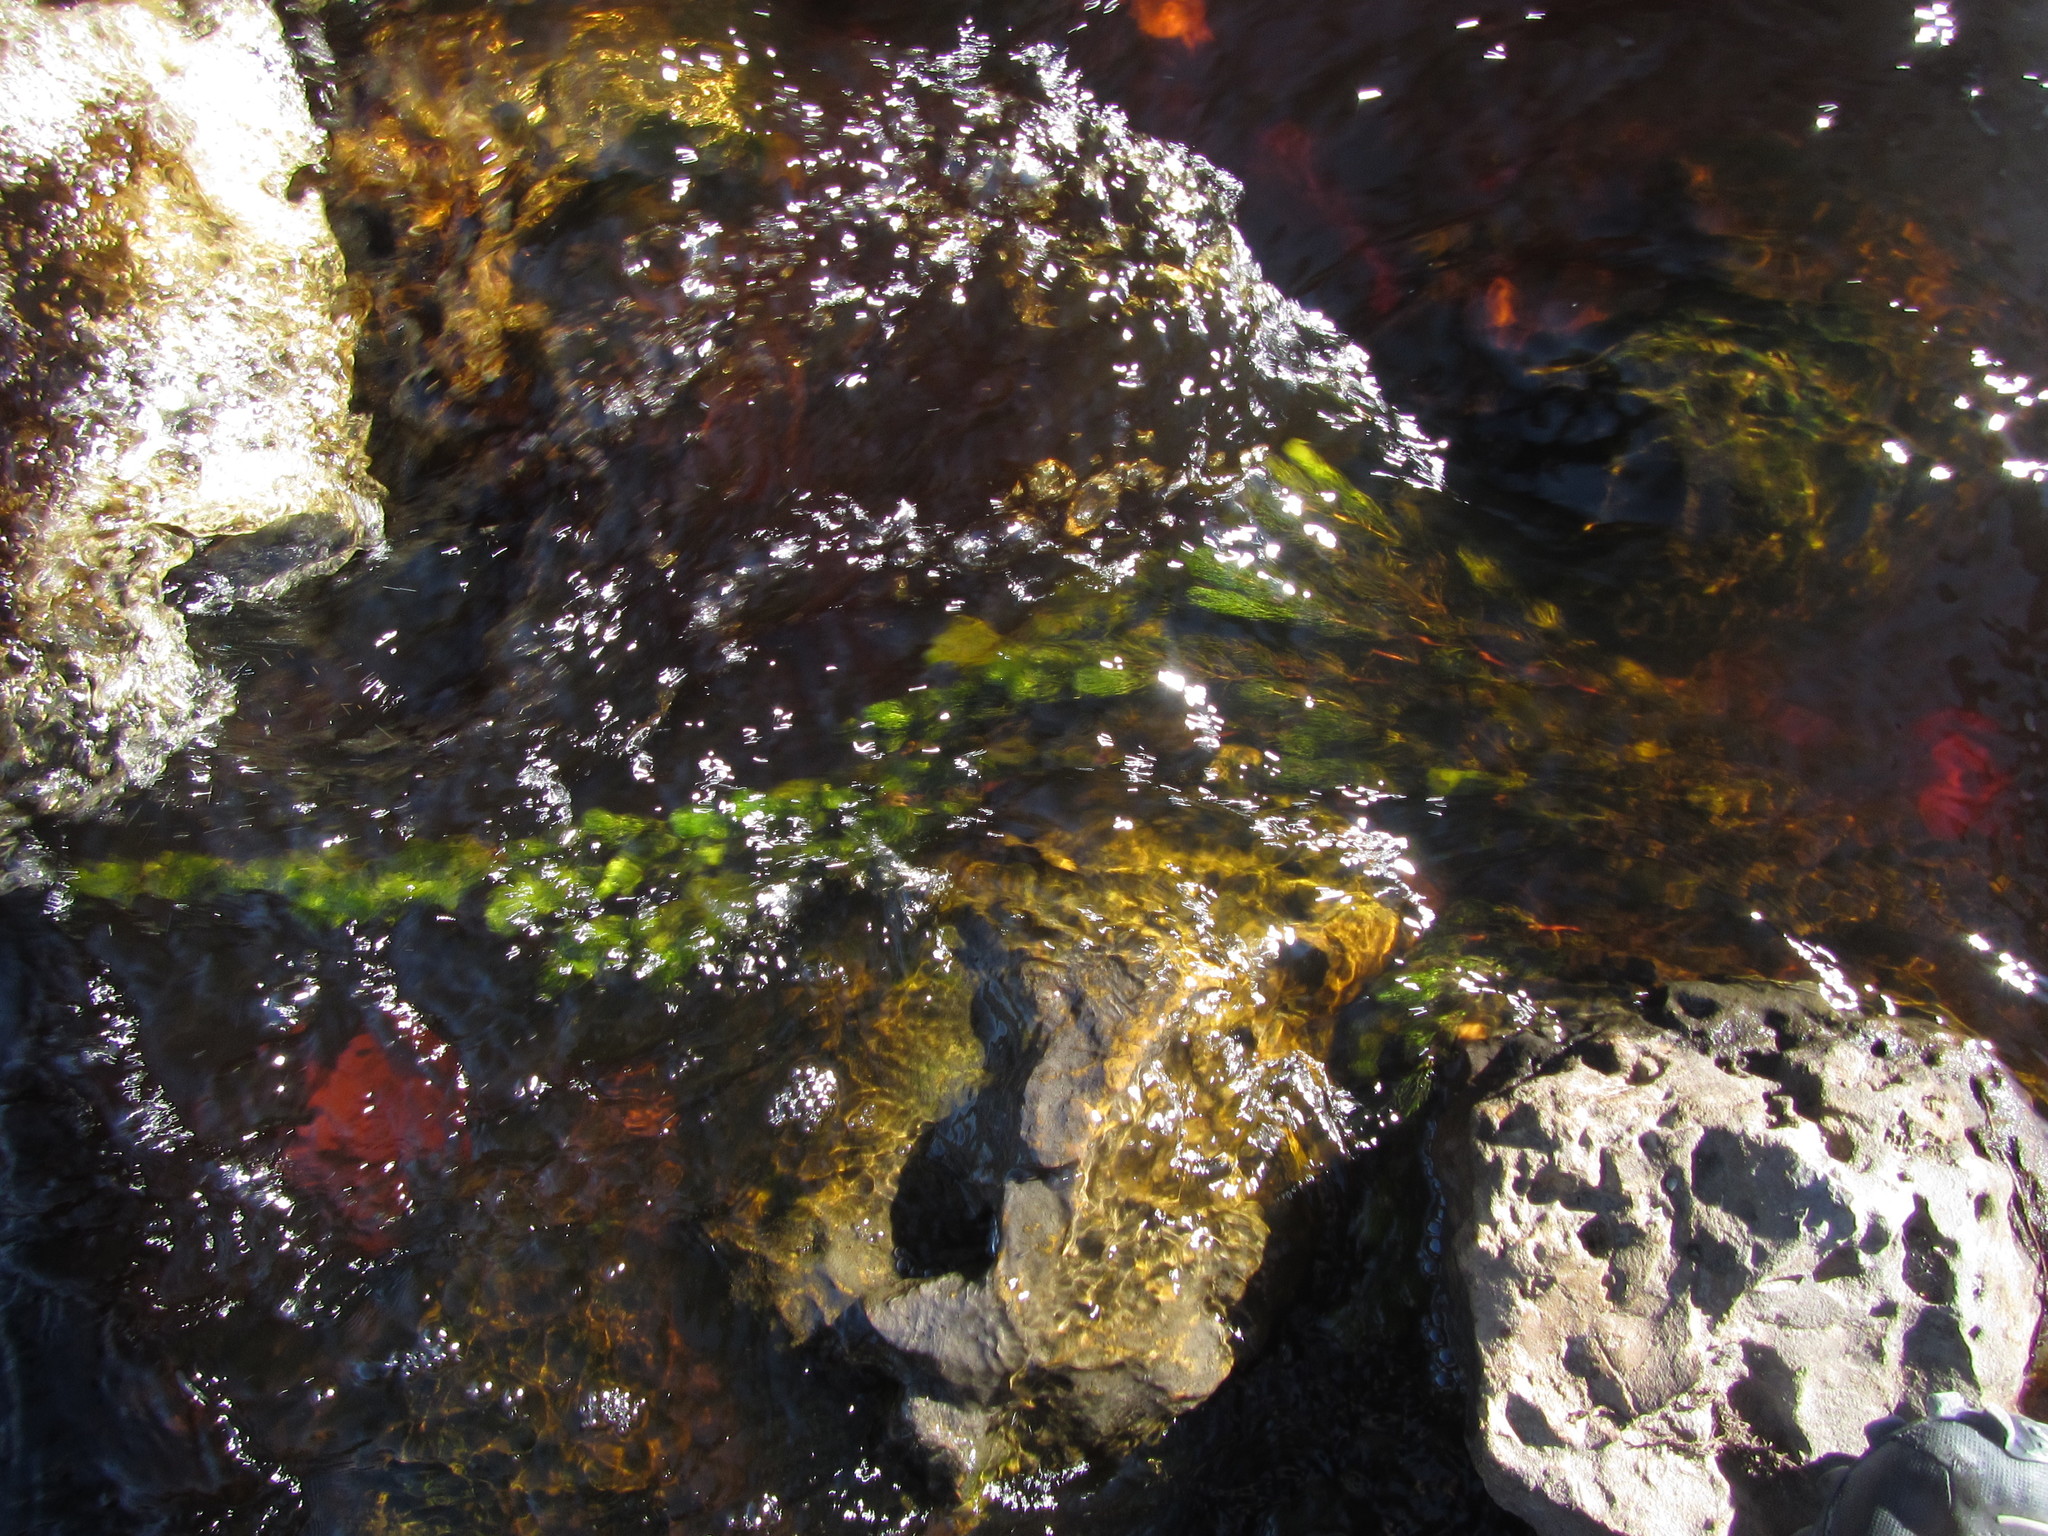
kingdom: Plantae
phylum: Tracheophyta
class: Magnoliopsida
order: Ceratophyllales
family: Ceratophyllaceae
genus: Ceratophyllum
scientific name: Ceratophyllum demersum
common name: Rigid hornwort
